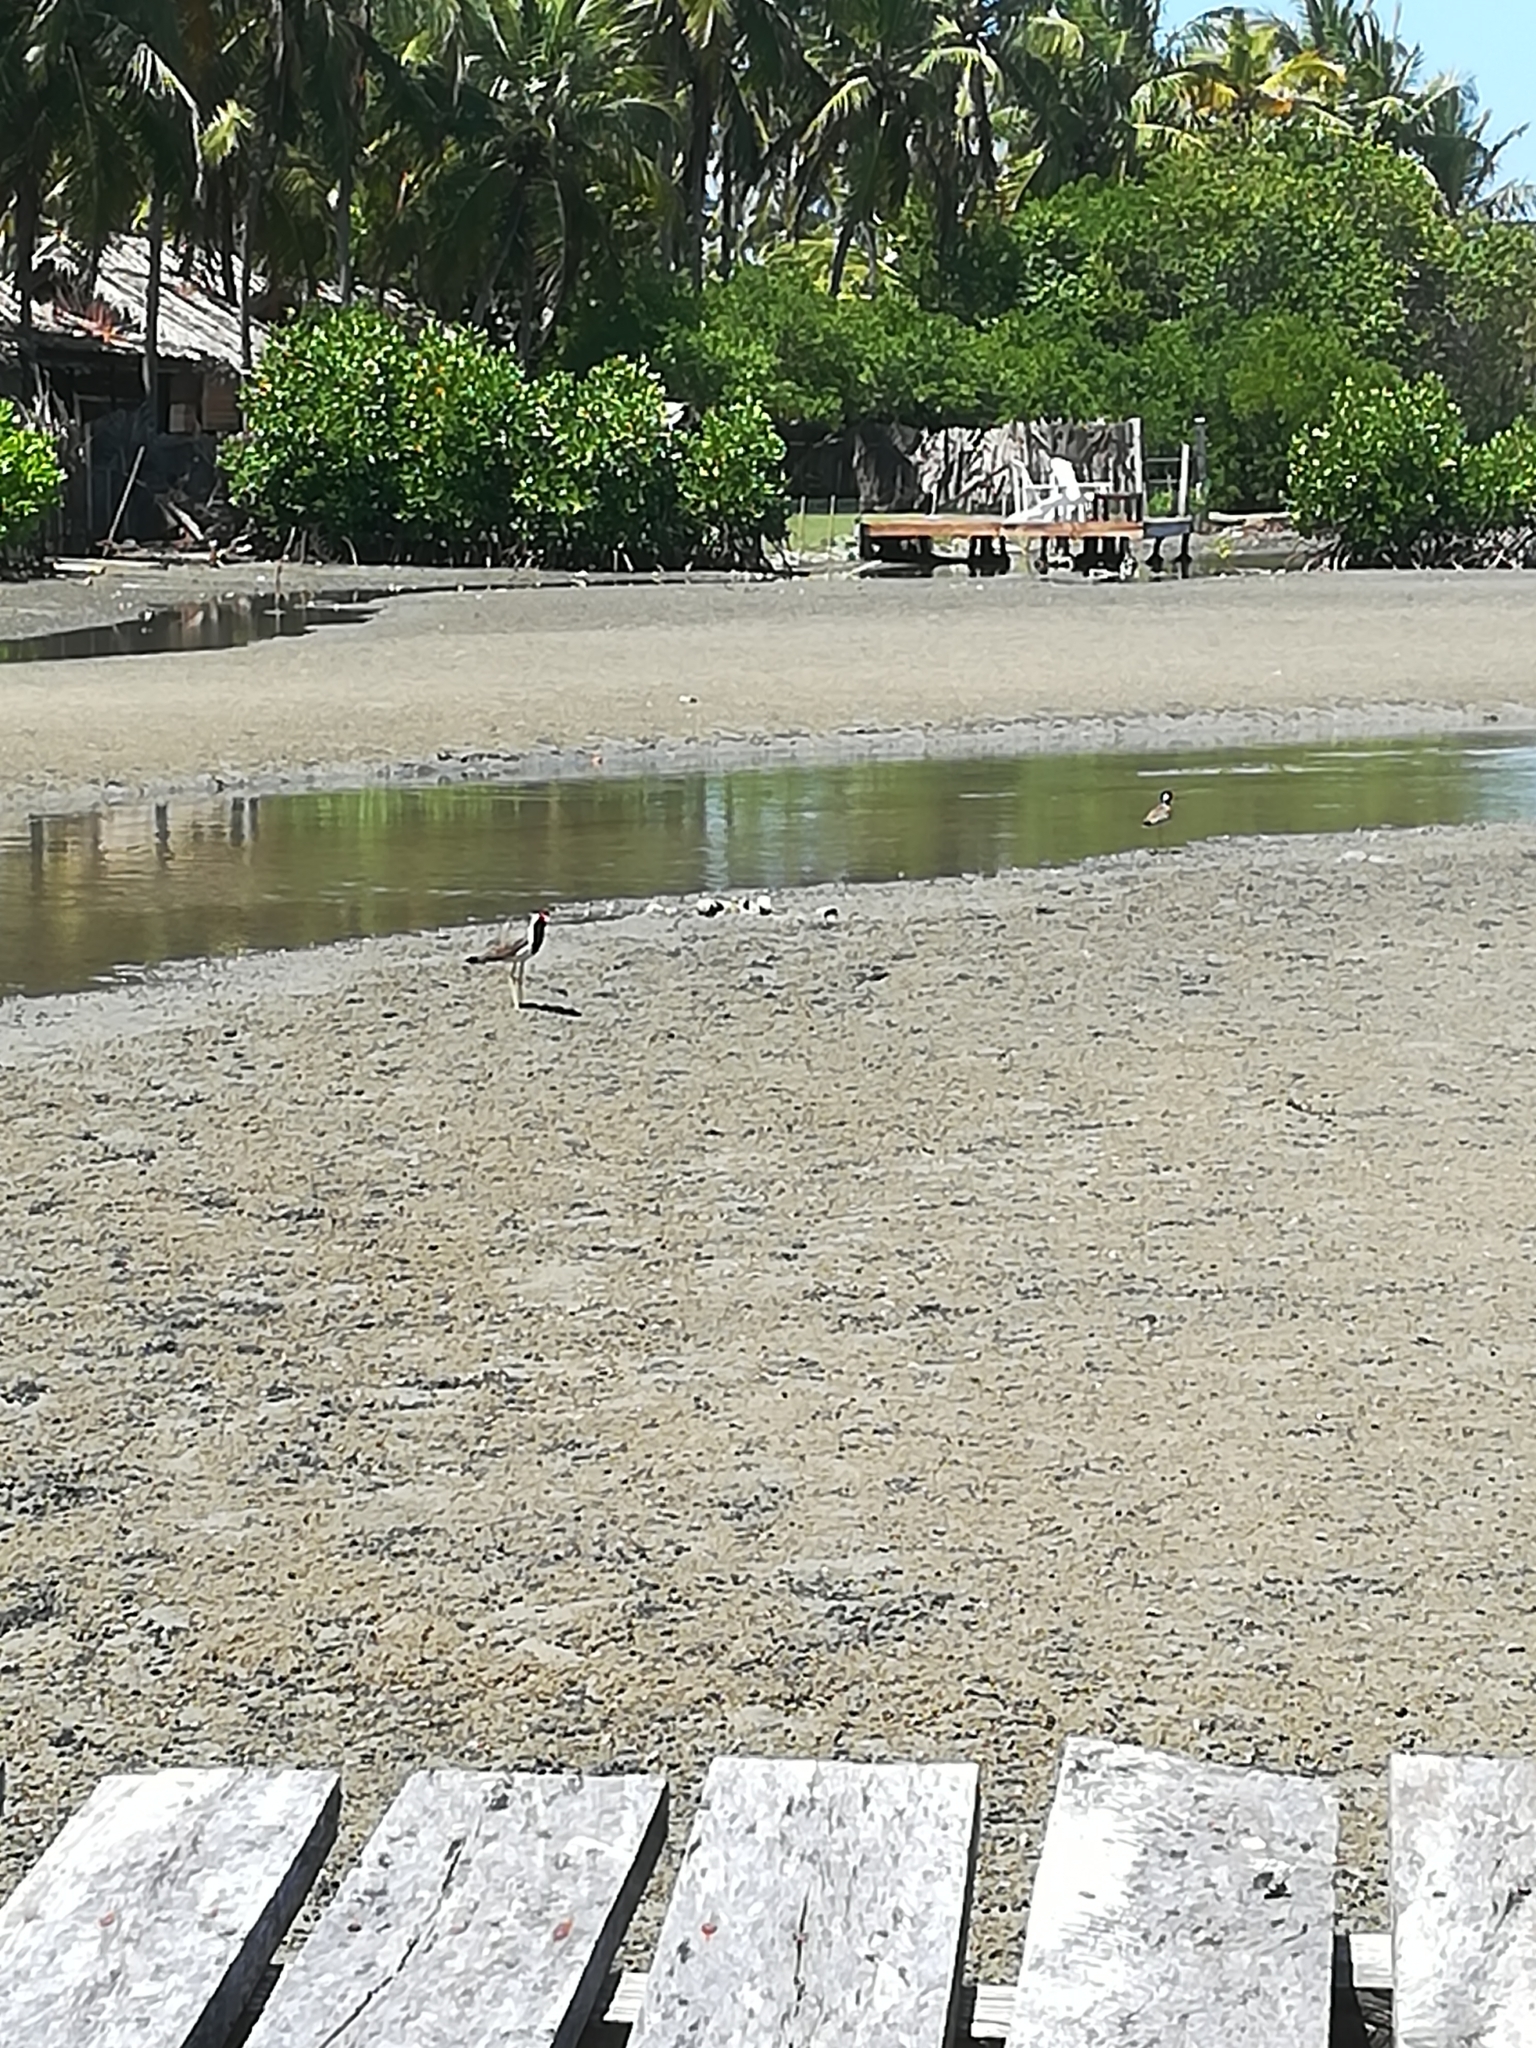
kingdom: Animalia
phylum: Chordata
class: Aves
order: Charadriiformes
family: Charadriidae
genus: Vanellus
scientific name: Vanellus indicus
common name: Red-wattled lapwing
